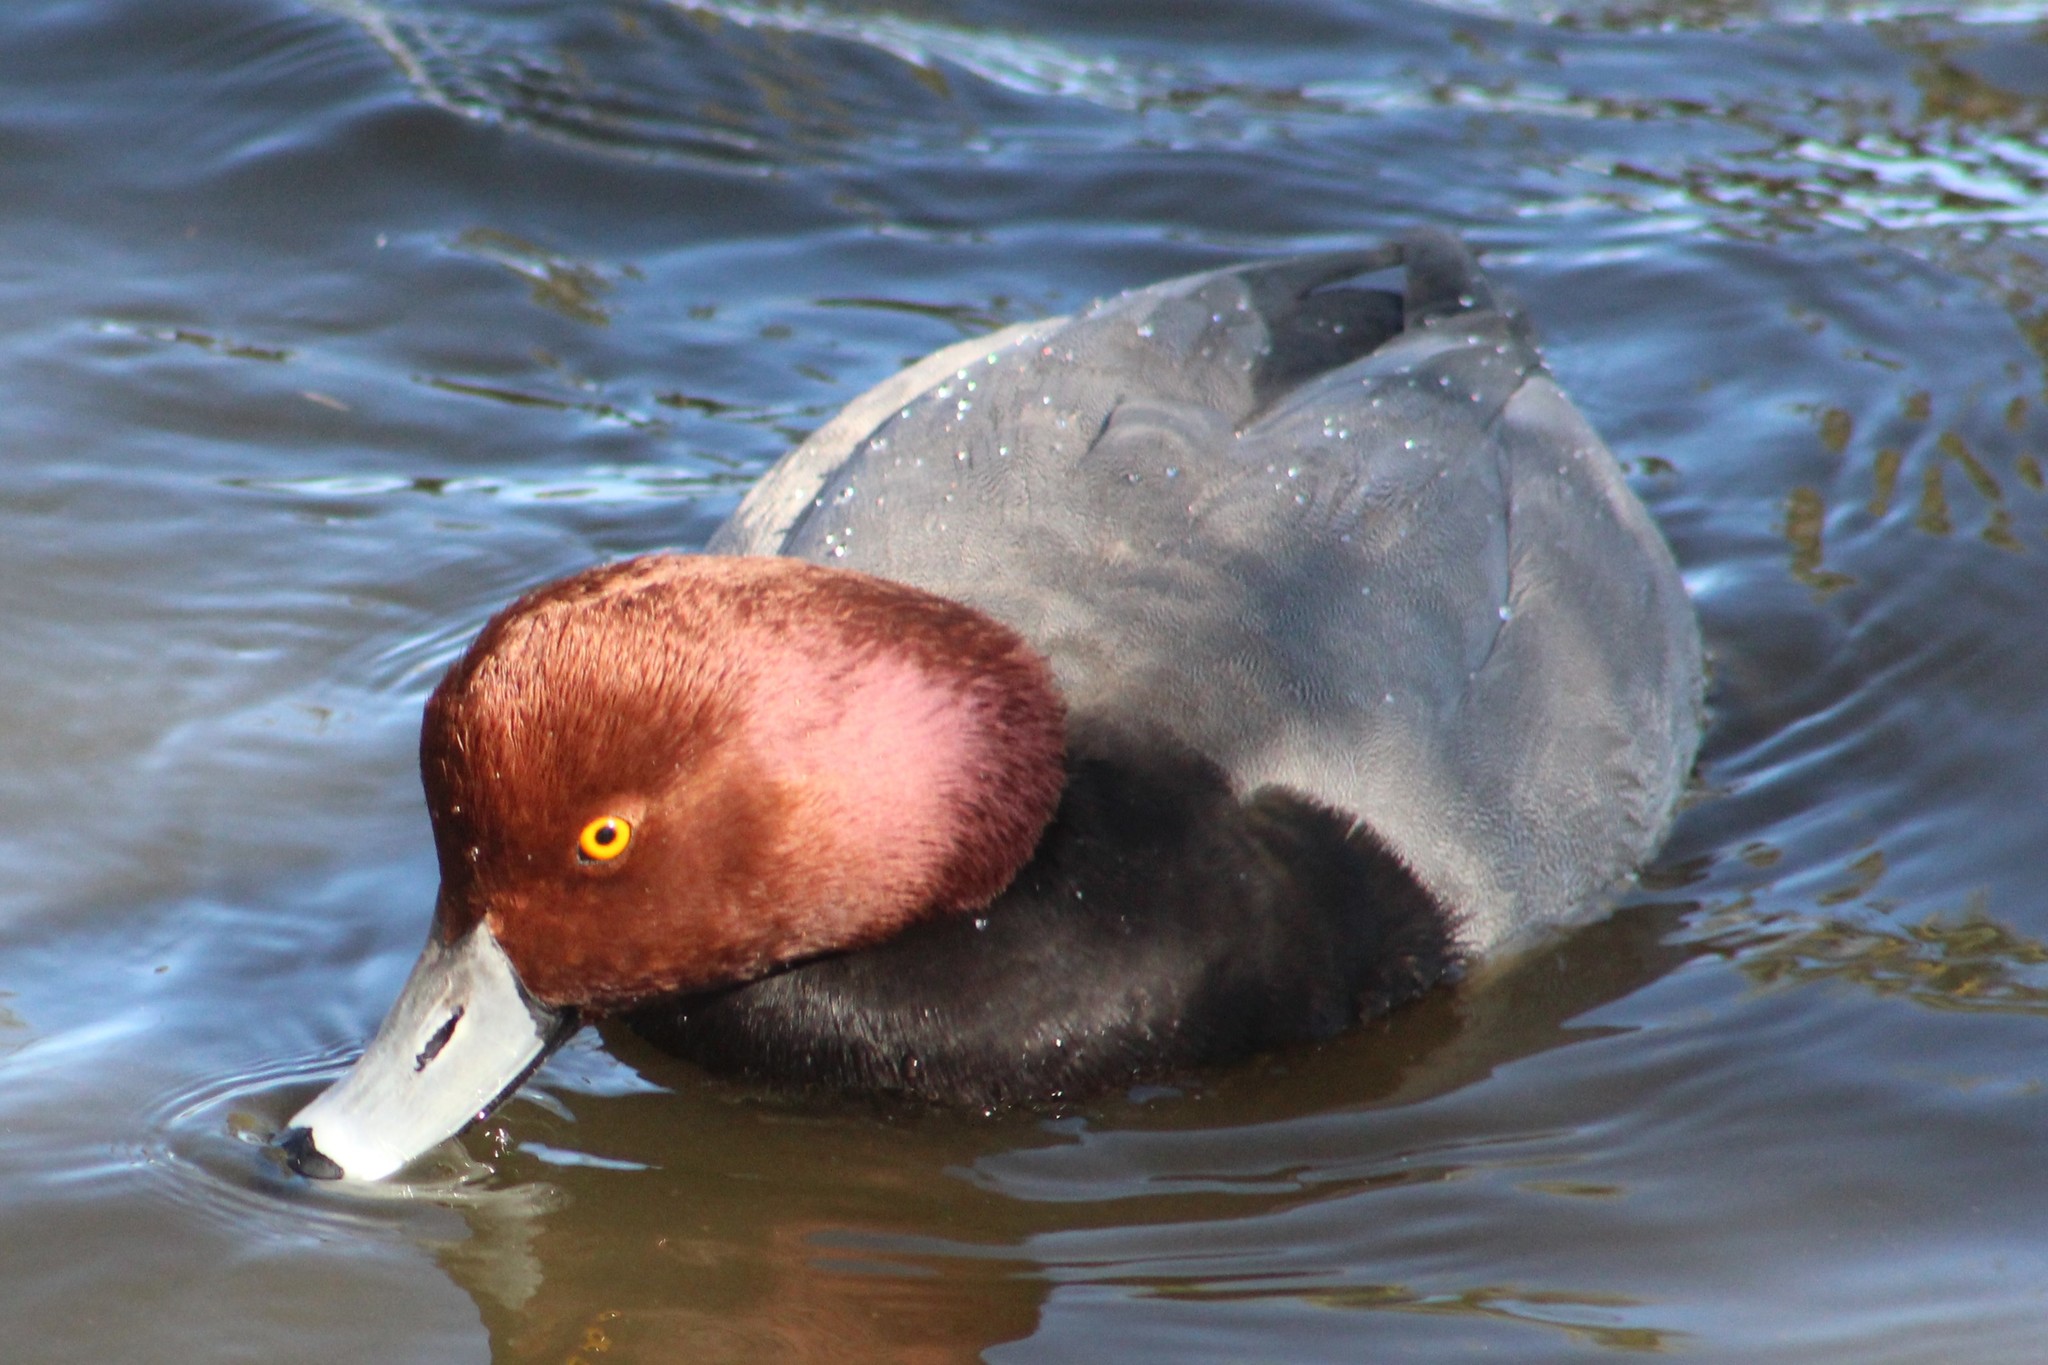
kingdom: Animalia
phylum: Chordata
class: Aves
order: Anseriformes
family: Anatidae
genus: Aythya
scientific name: Aythya americana
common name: Redhead
